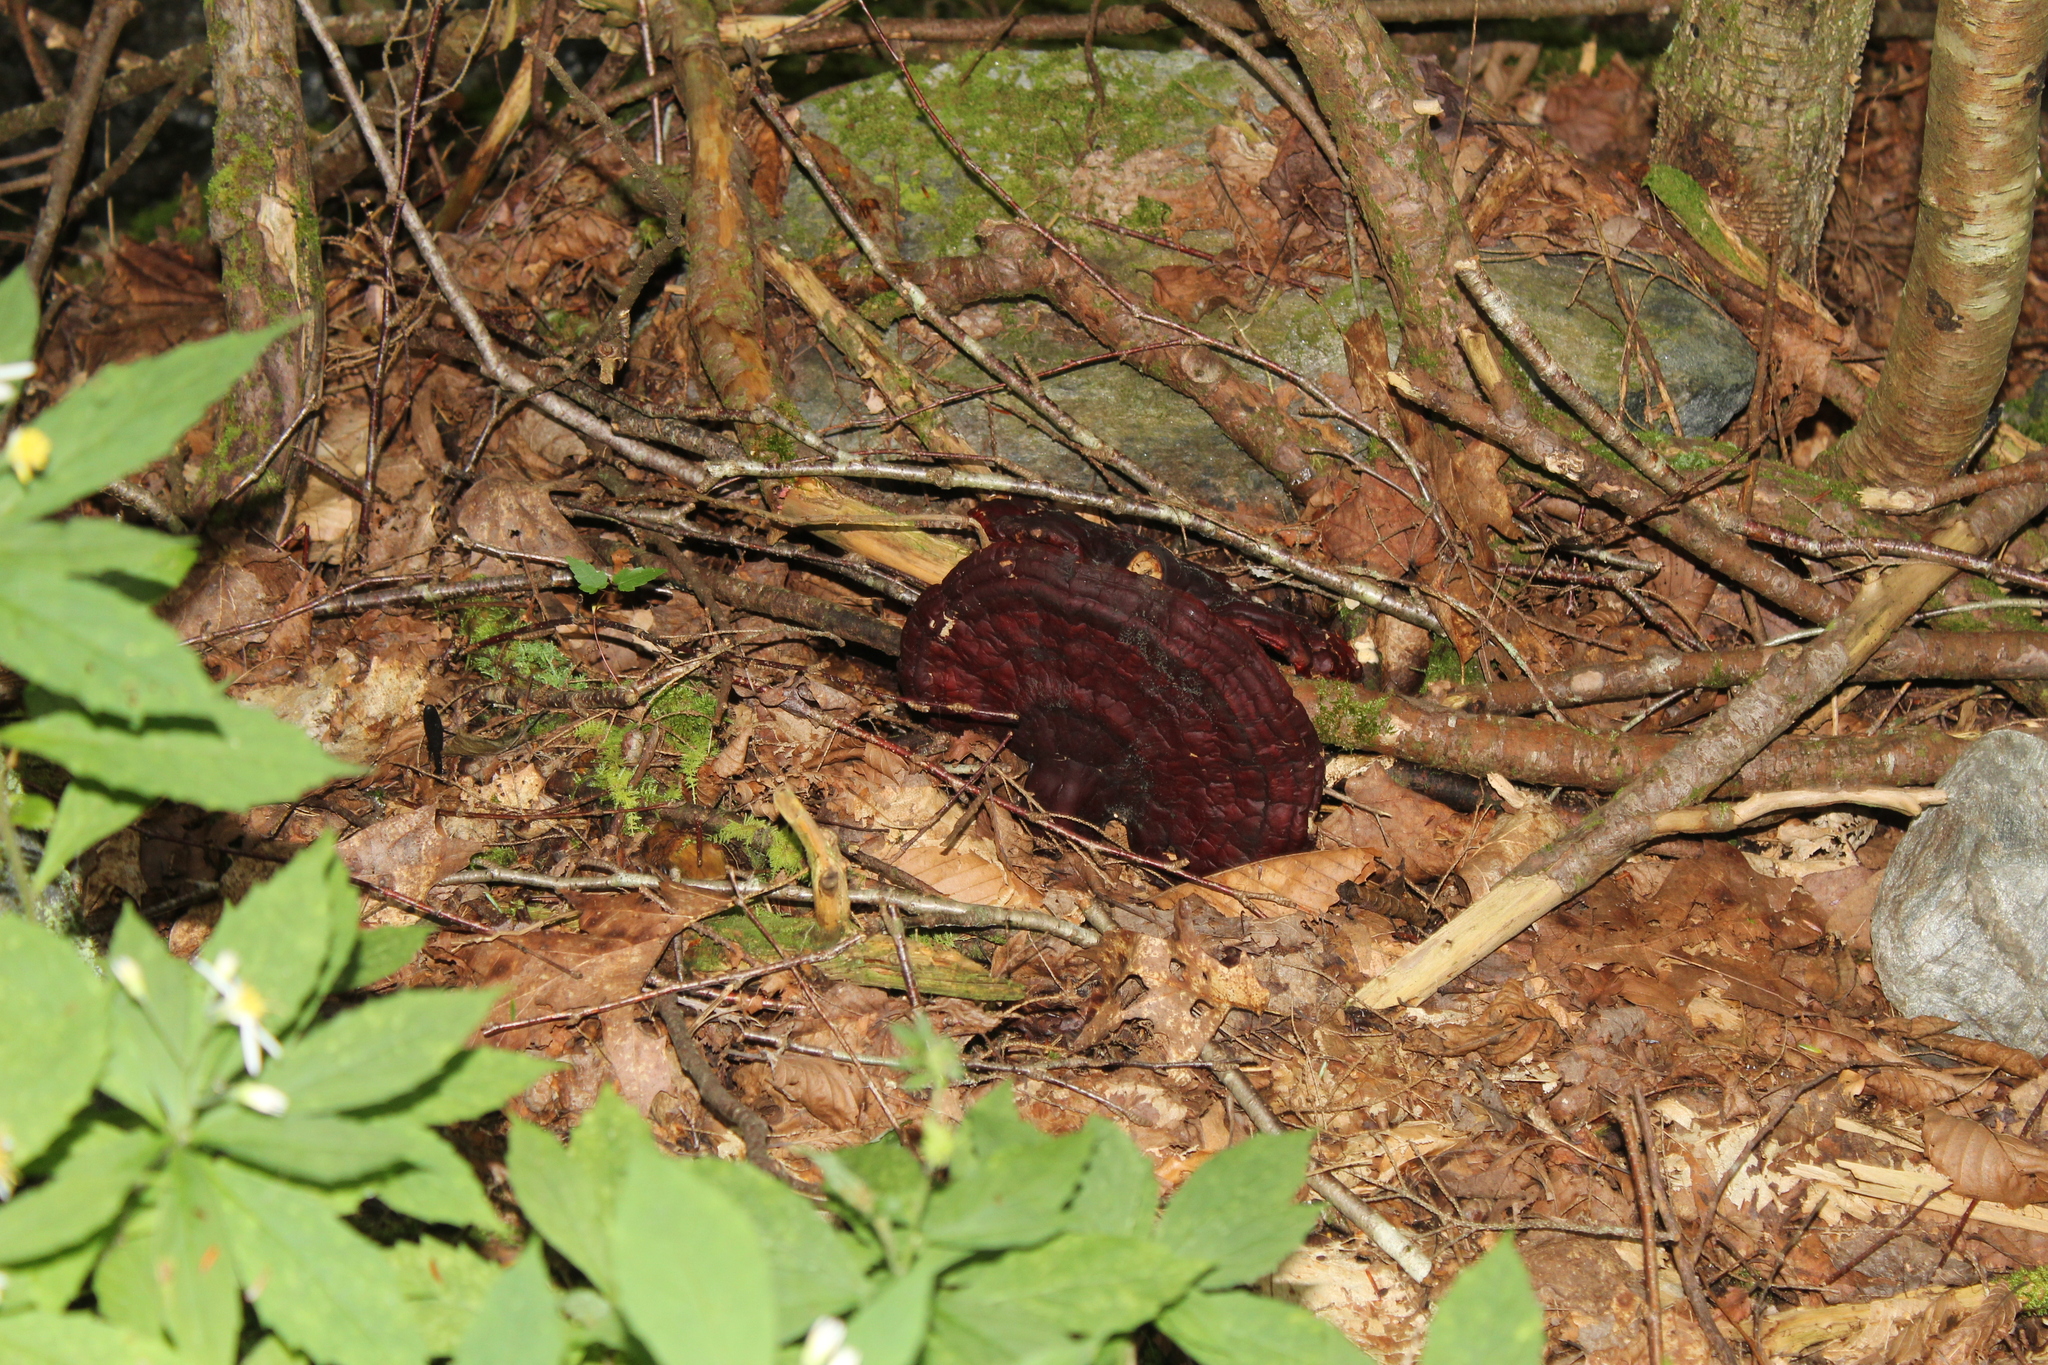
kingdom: Fungi
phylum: Basidiomycota
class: Agaricomycetes
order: Polyporales
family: Polyporaceae
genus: Ganoderma
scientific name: Ganoderma tsugae
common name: Hemlock varnish shelf
